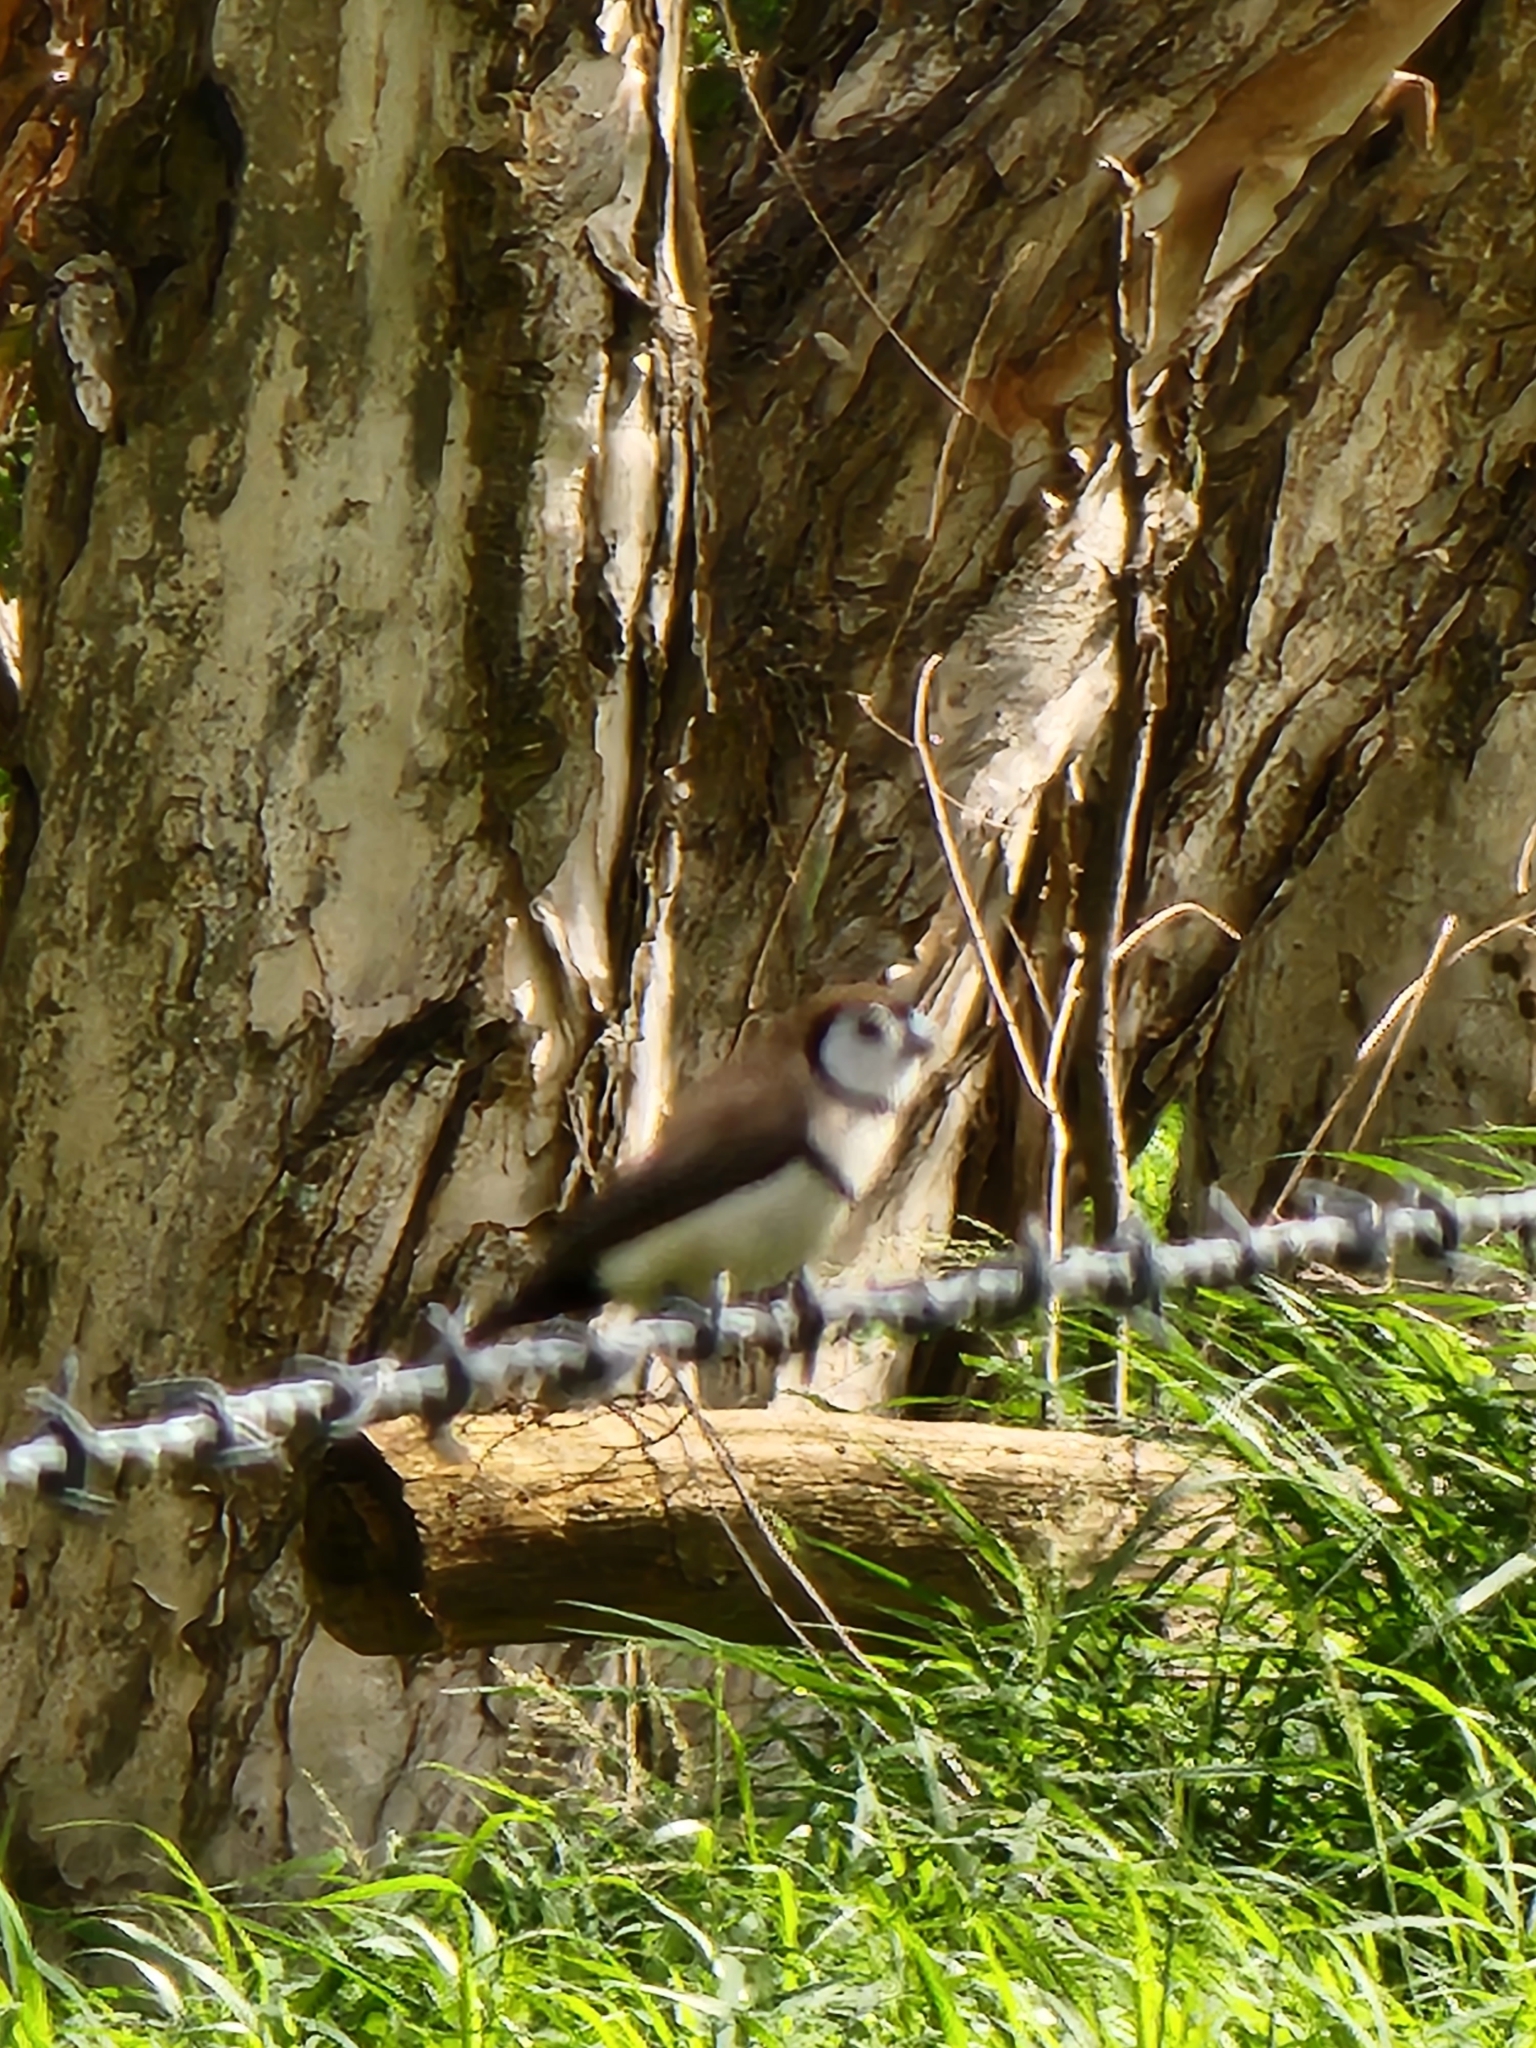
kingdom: Animalia
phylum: Chordata
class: Aves
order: Passeriformes
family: Estrildidae
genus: Taeniopygia
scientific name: Taeniopygia bichenovii
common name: Double-barred finch
